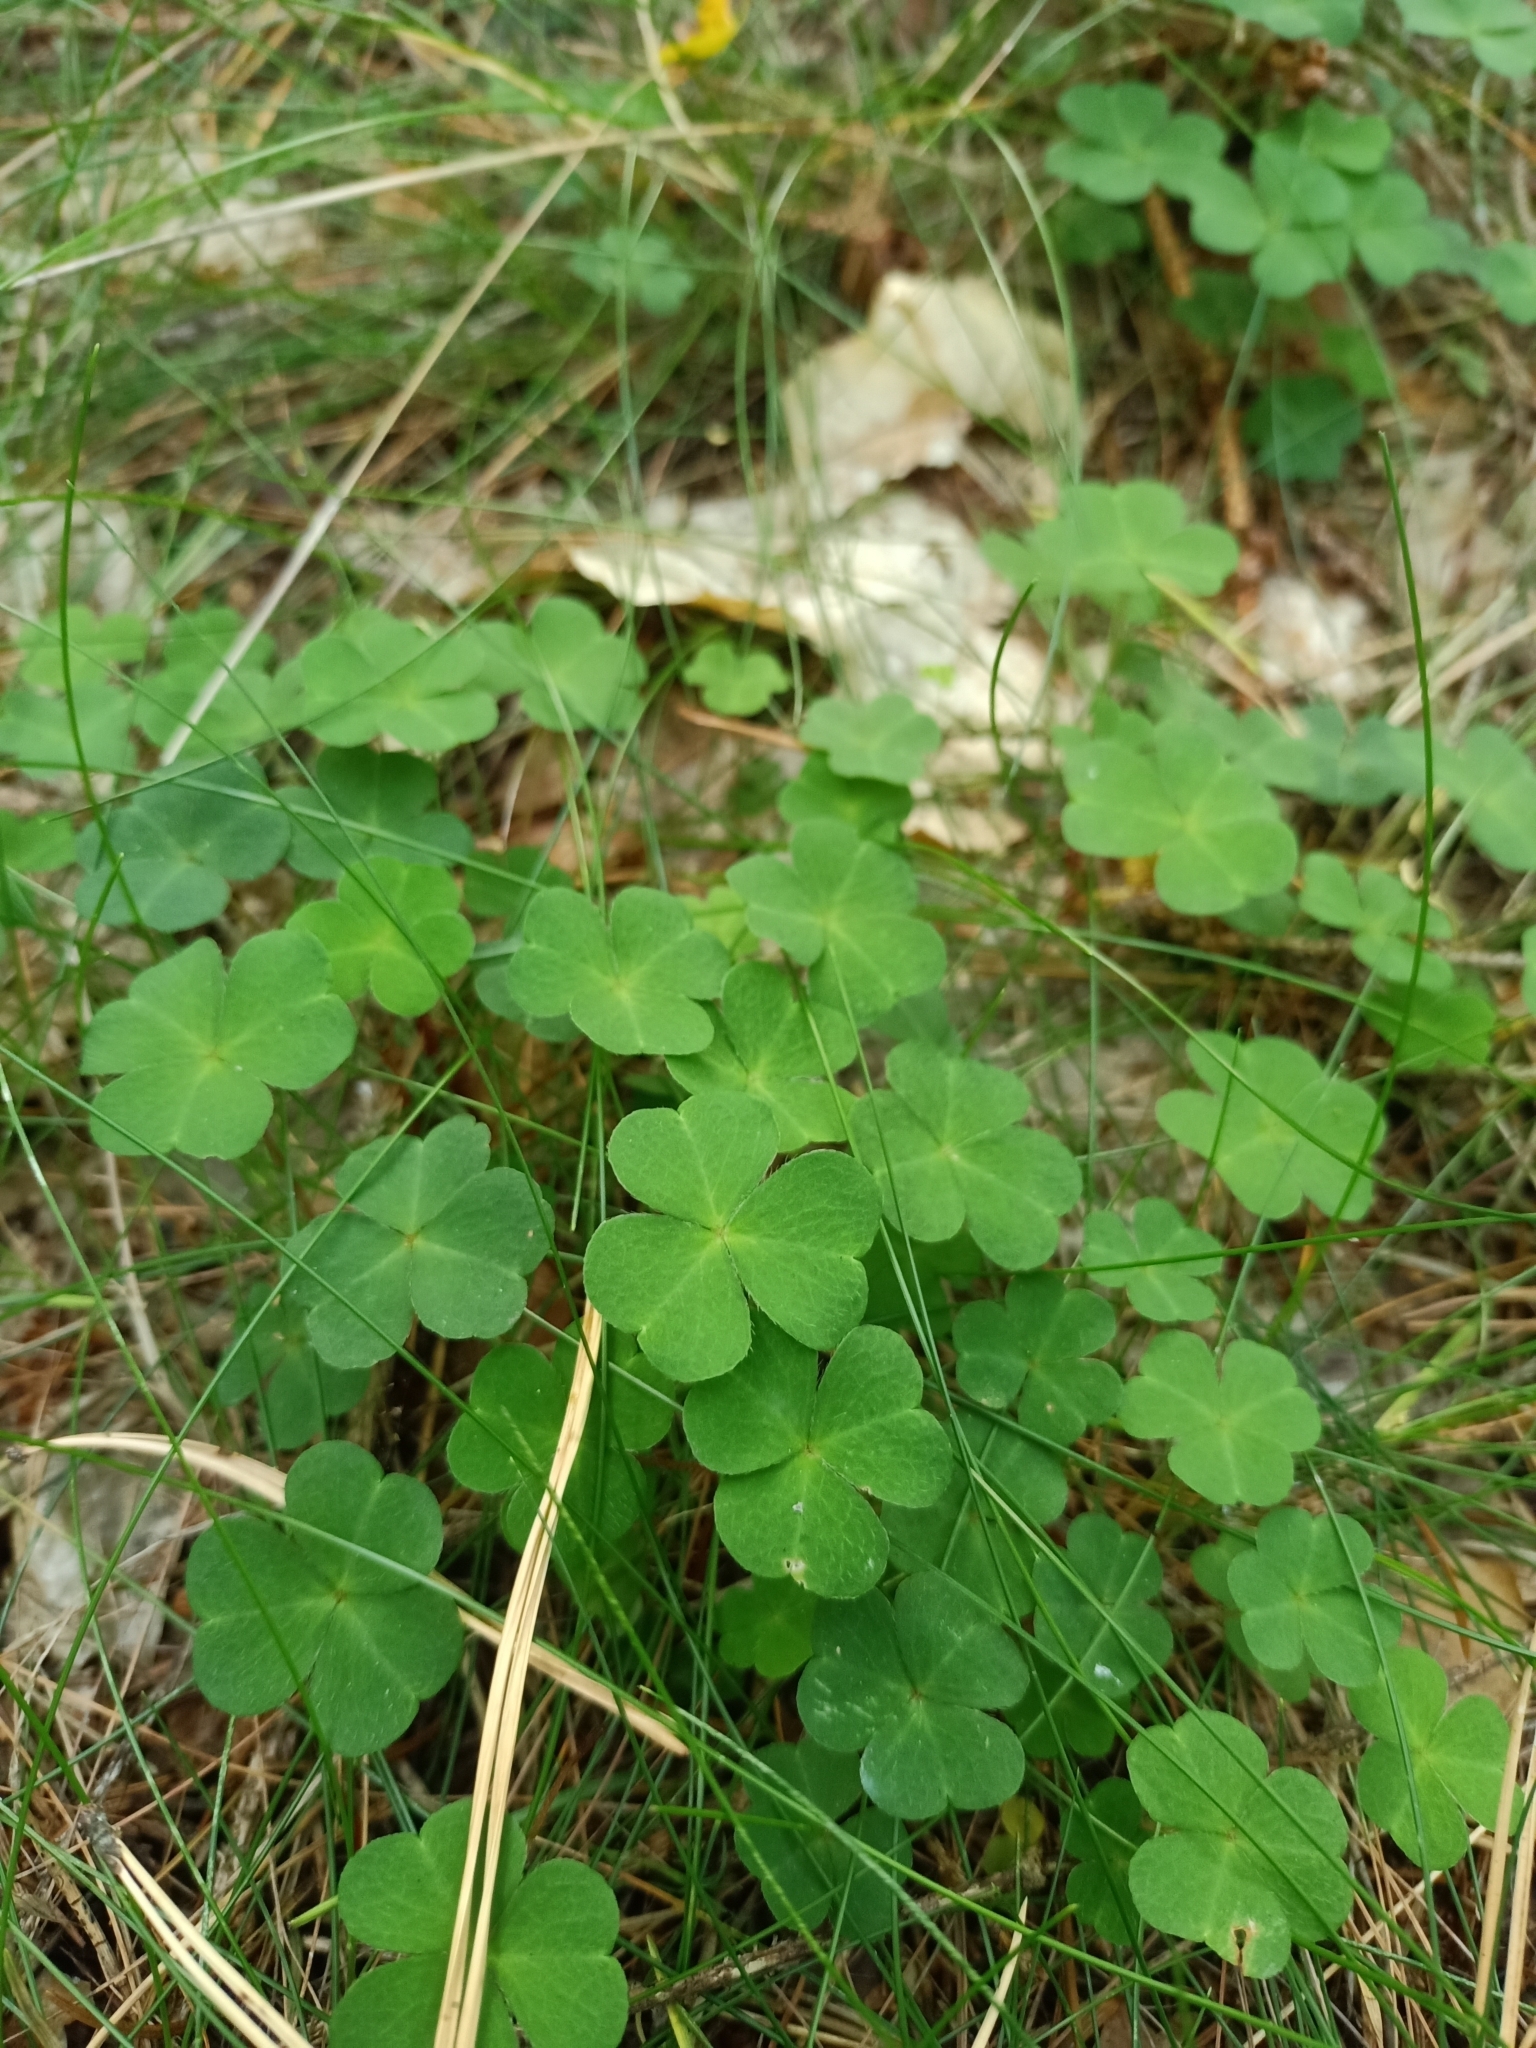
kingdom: Plantae
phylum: Tracheophyta
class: Magnoliopsida
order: Oxalidales
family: Oxalidaceae
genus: Oxalis
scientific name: Oxalis acetosella
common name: Wood-sorrel
